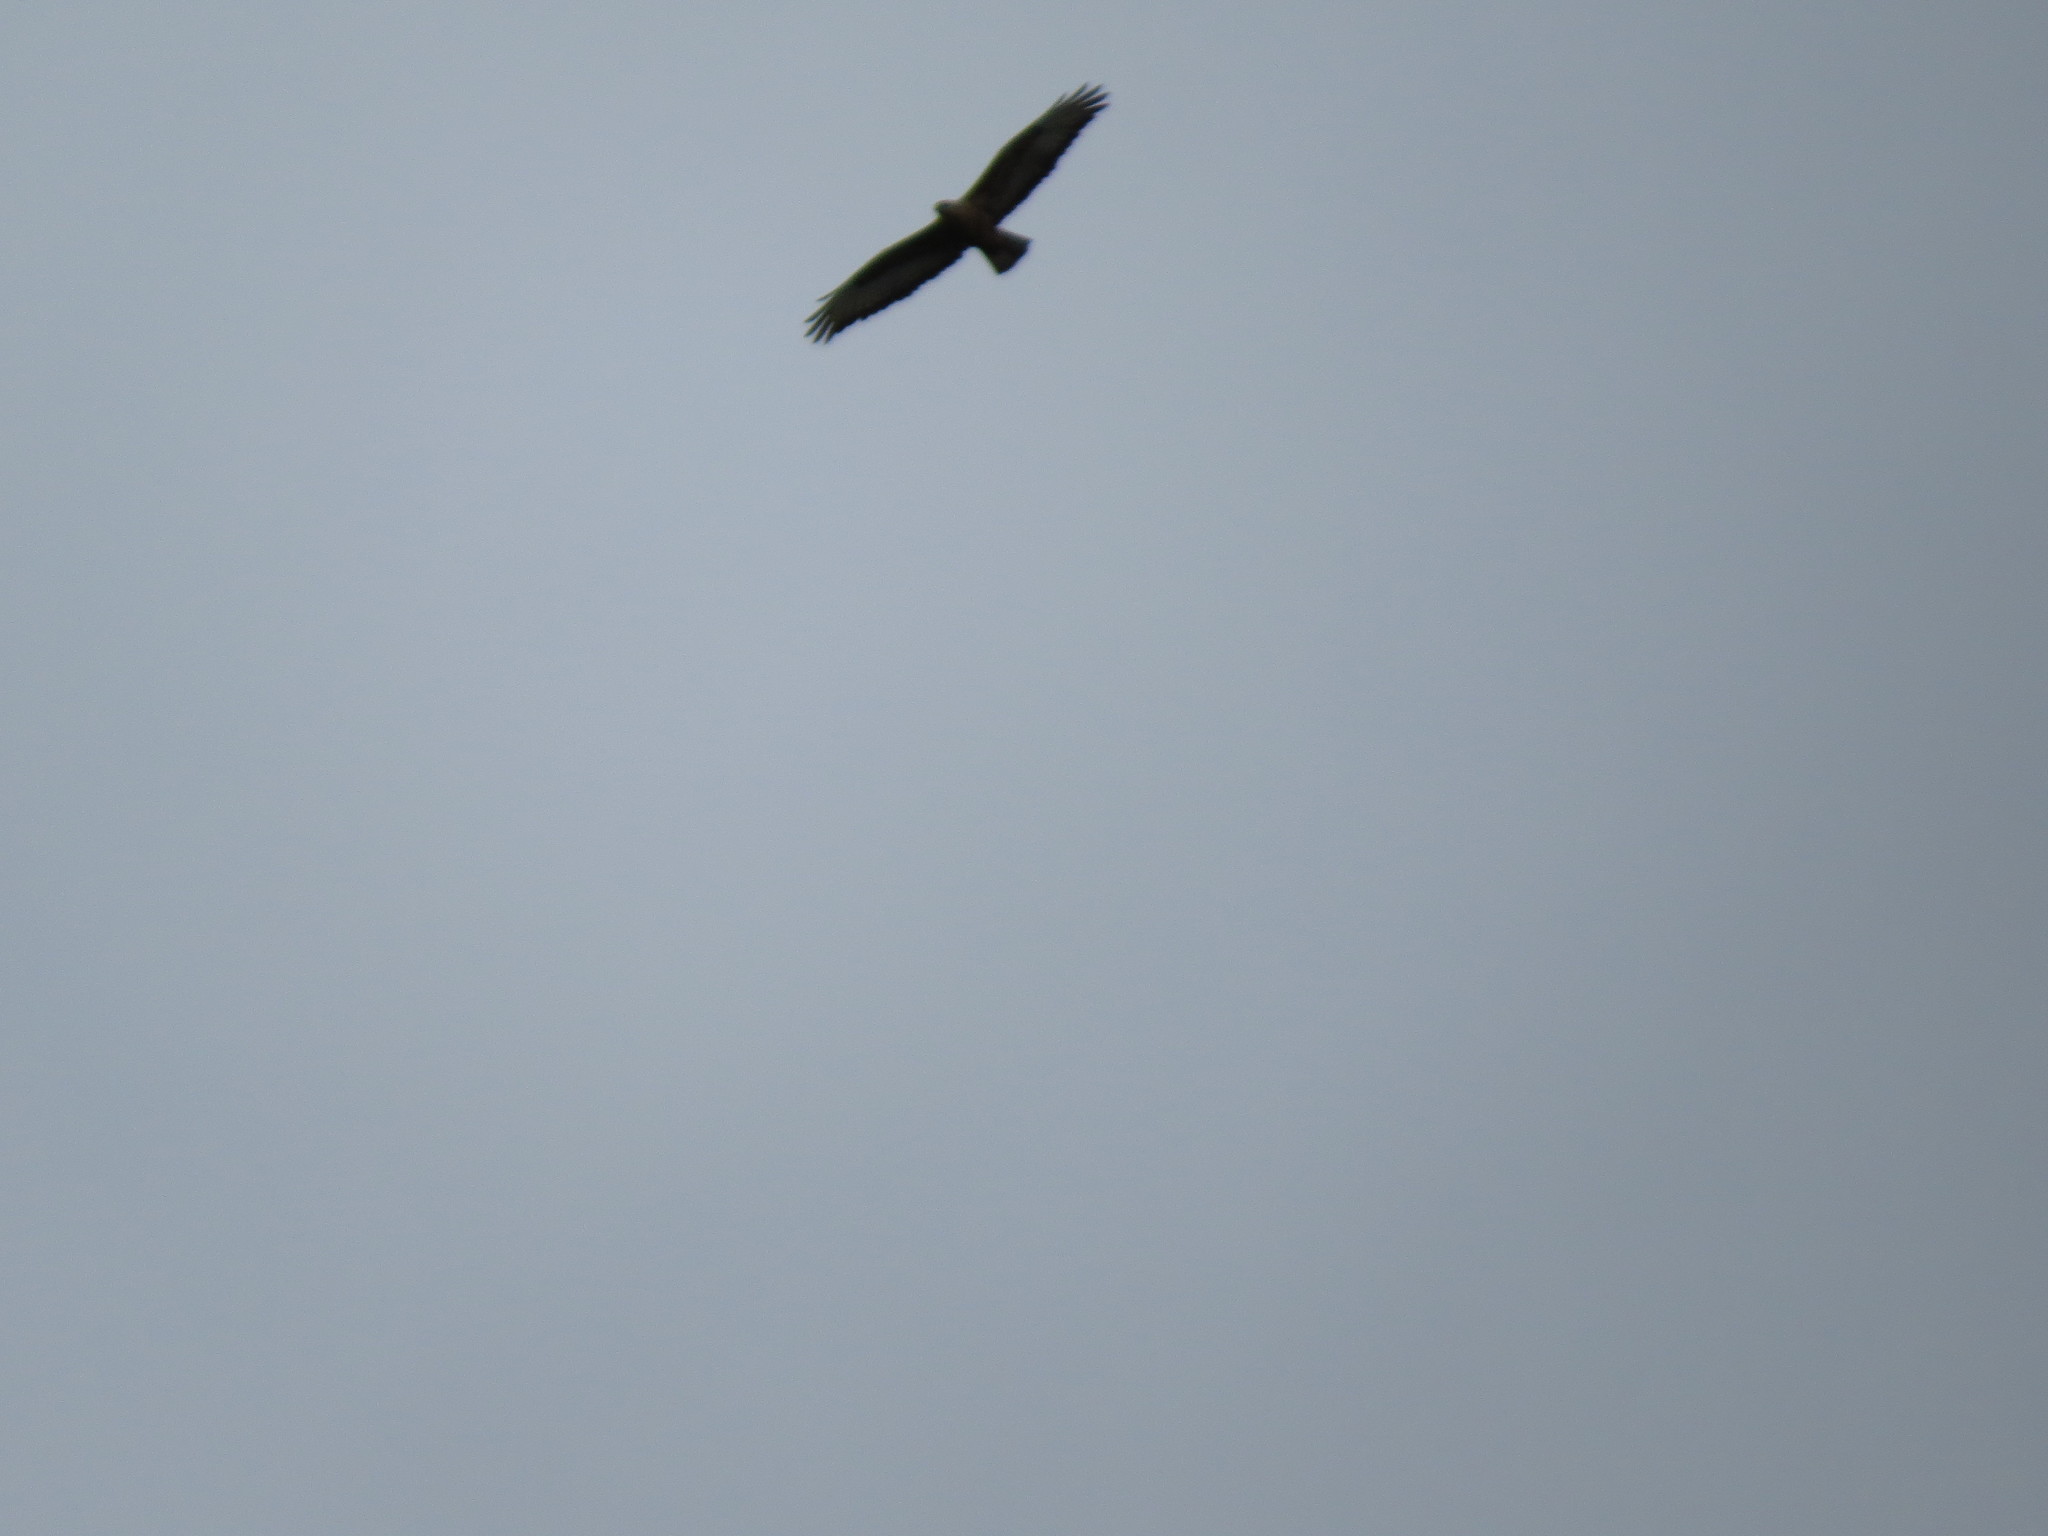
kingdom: Animalia
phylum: Chordata
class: Aves
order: Accipitriformes
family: Accipitridae
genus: Buteo
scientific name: Buteo buteo
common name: Common buzzard
